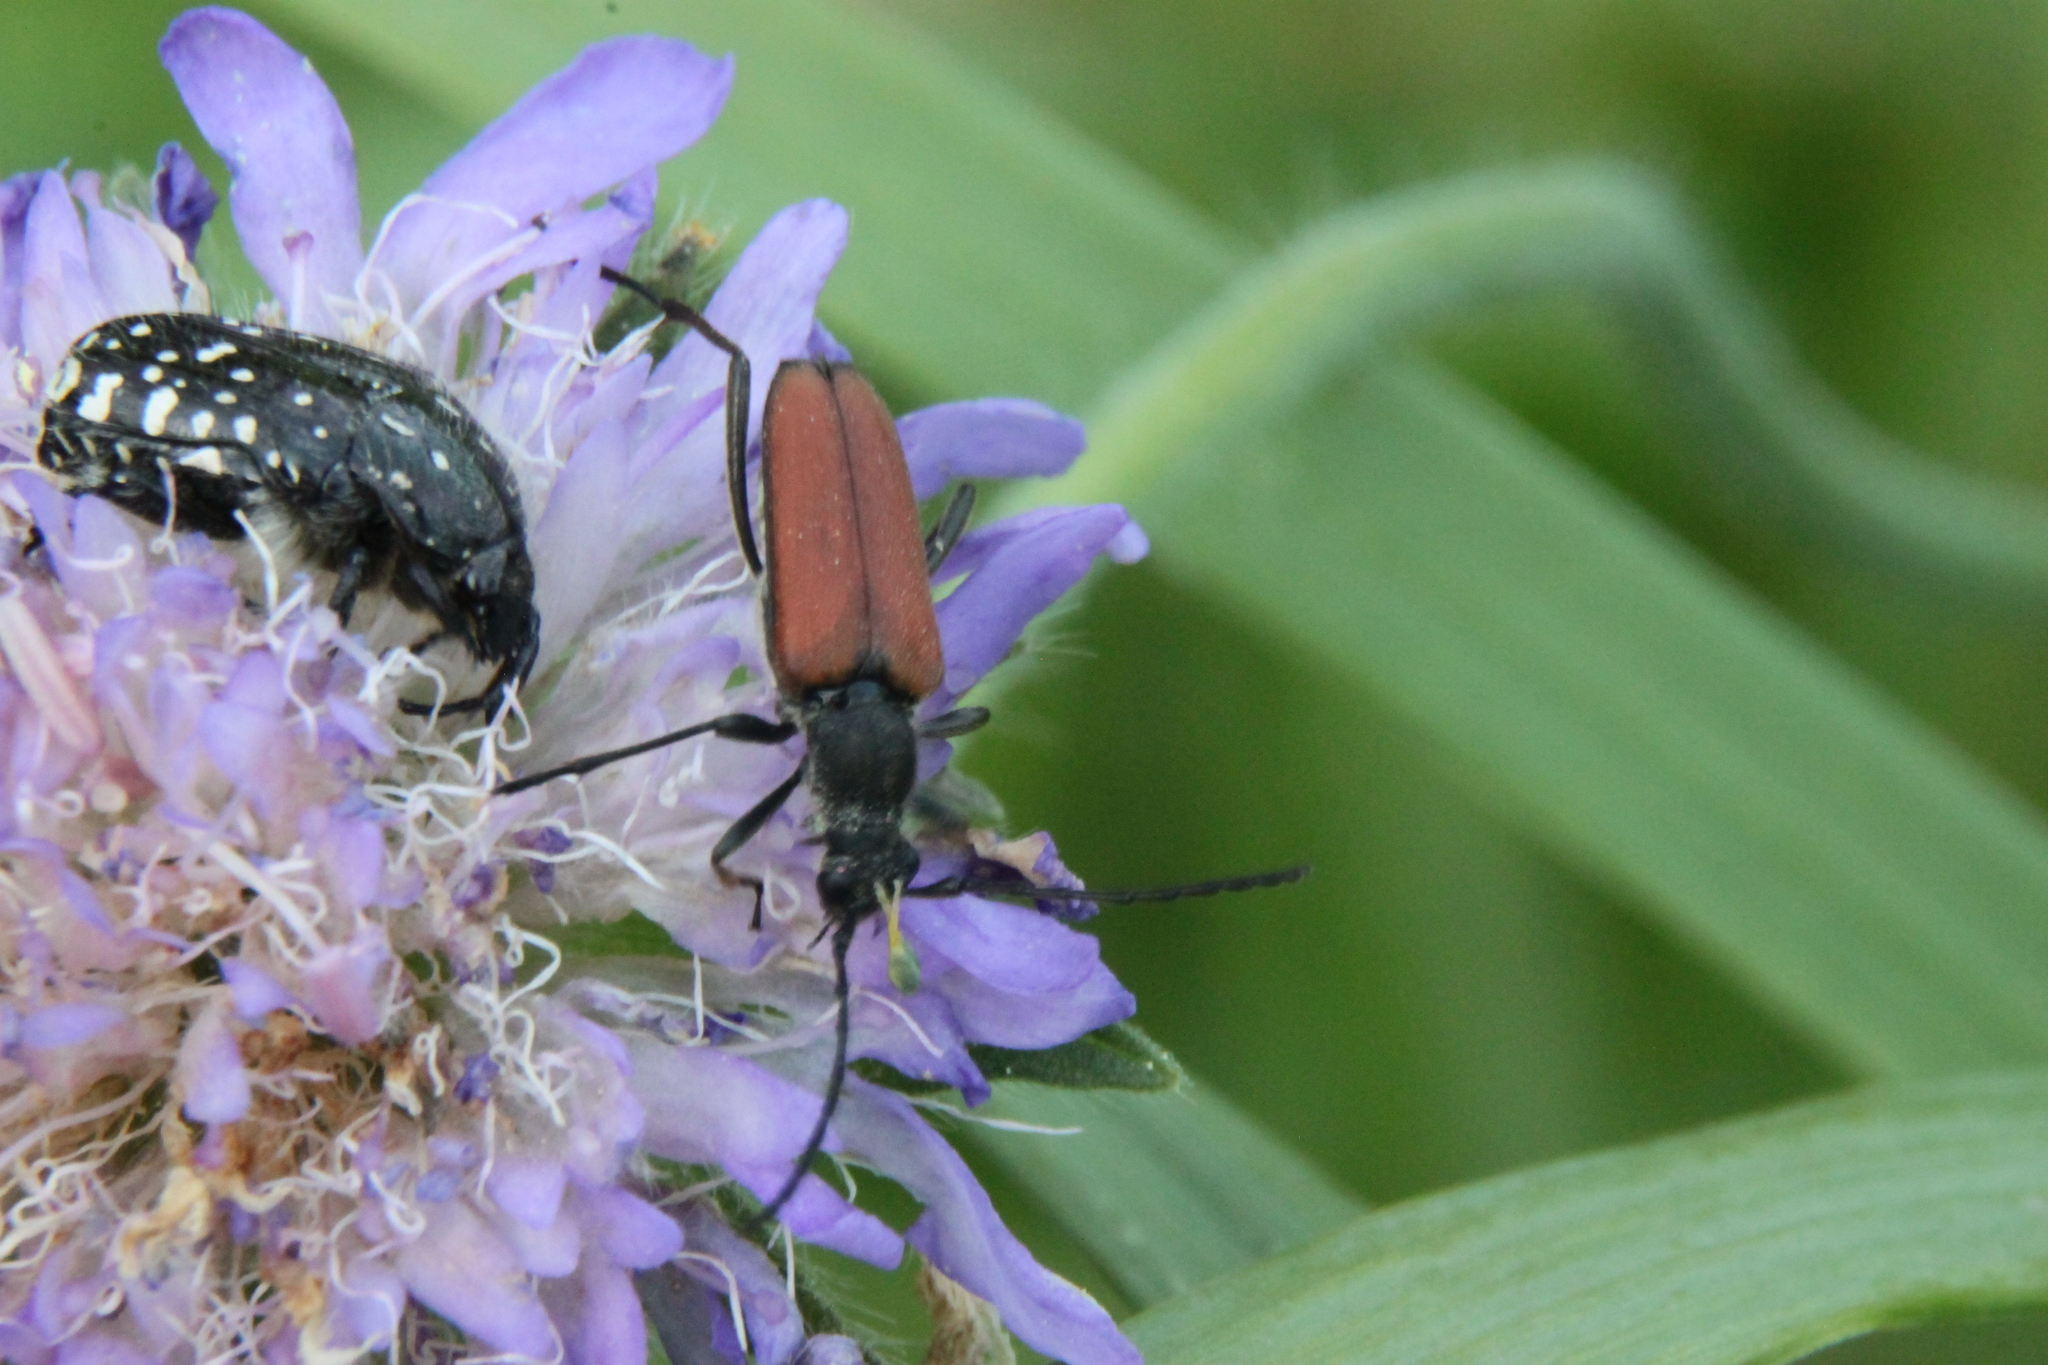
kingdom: Animalia
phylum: Arthropoda
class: Insecta
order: Coleoptera
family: Cerambycidae
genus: Anastrangalia
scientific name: Anastrangalia reyi
